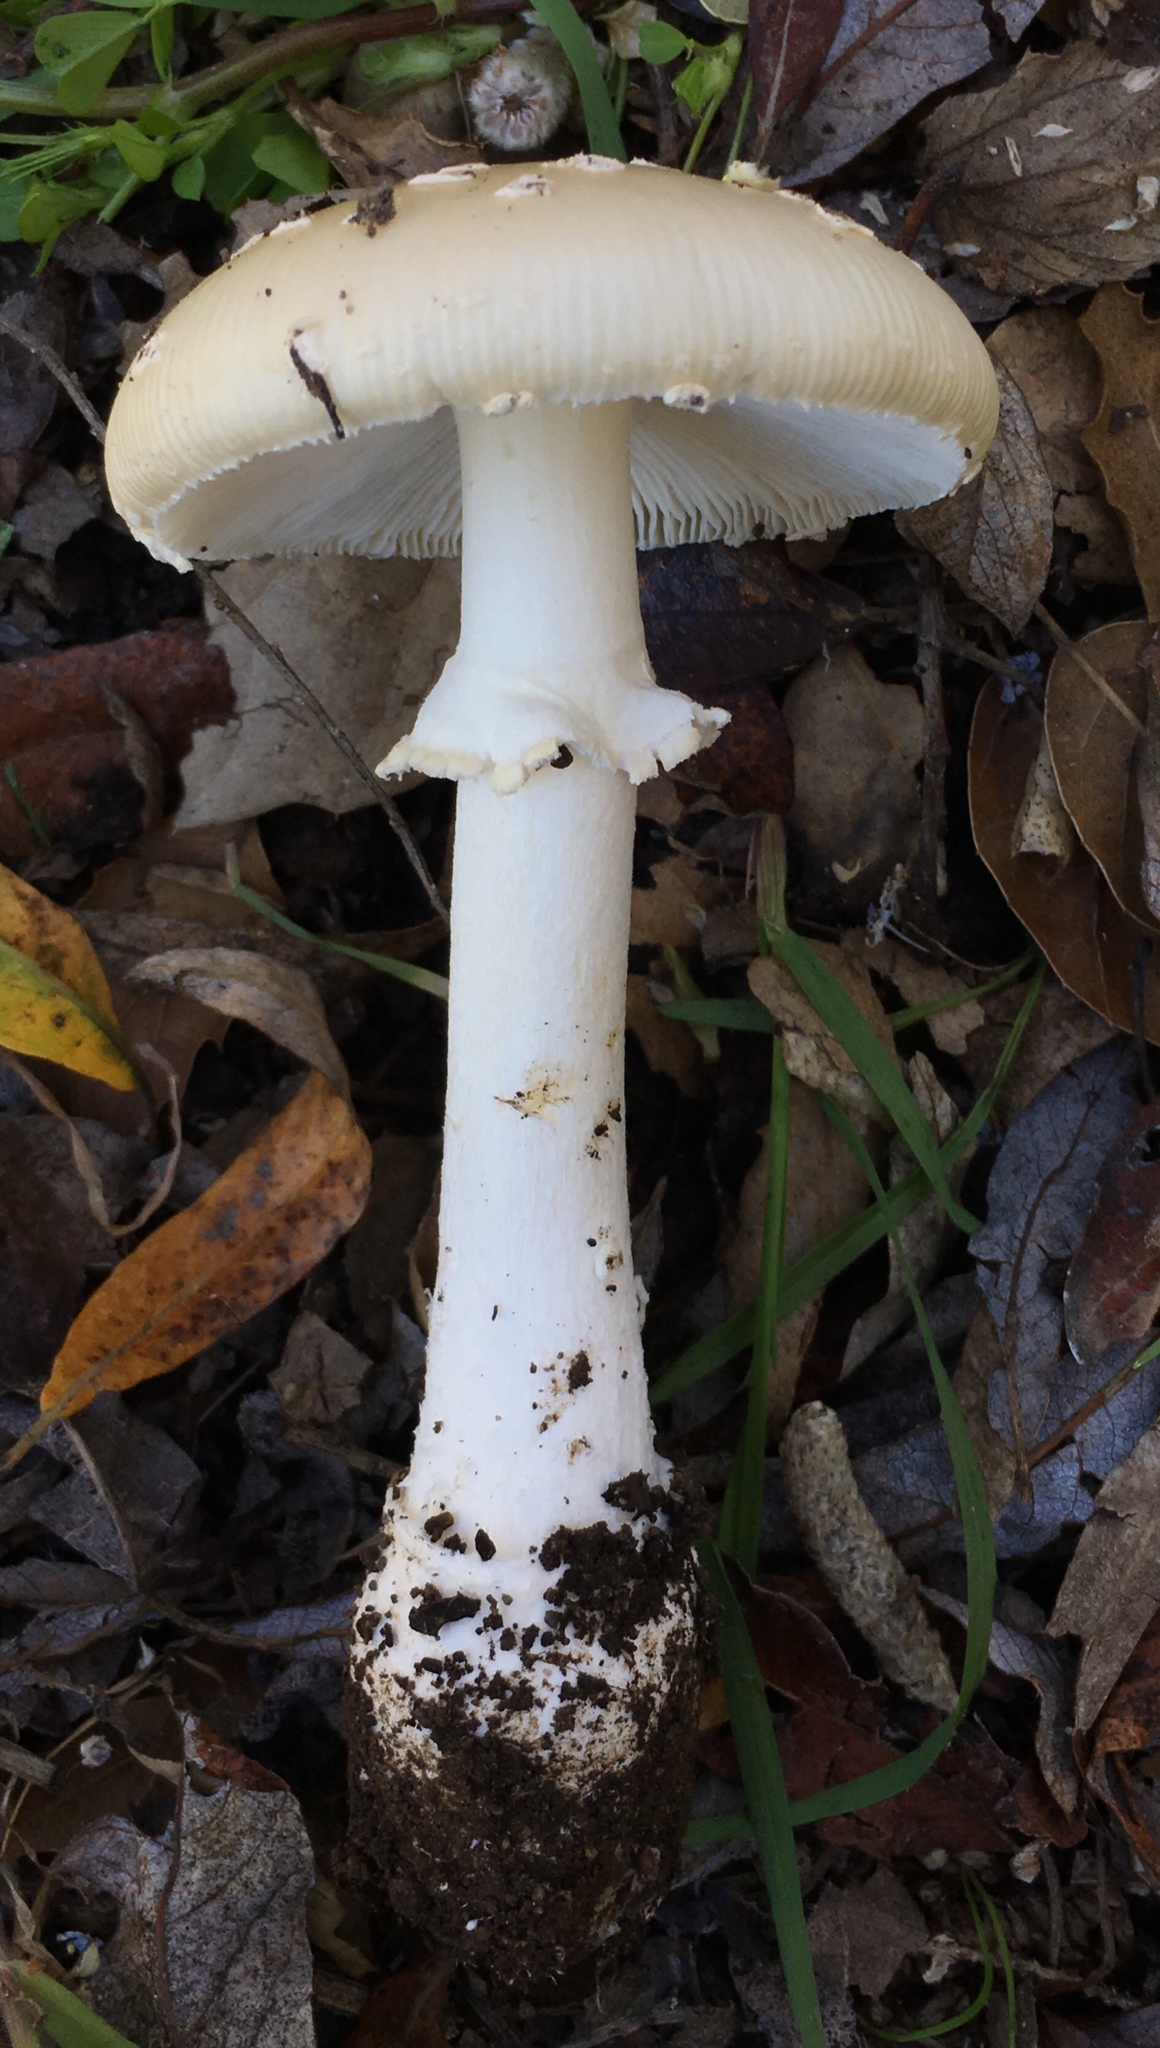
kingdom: Fungi
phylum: Basidiomycota
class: Agaricomycetes
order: Agaricales
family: Amanitaceae
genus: Amanita
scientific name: Amanita pantherinoides
